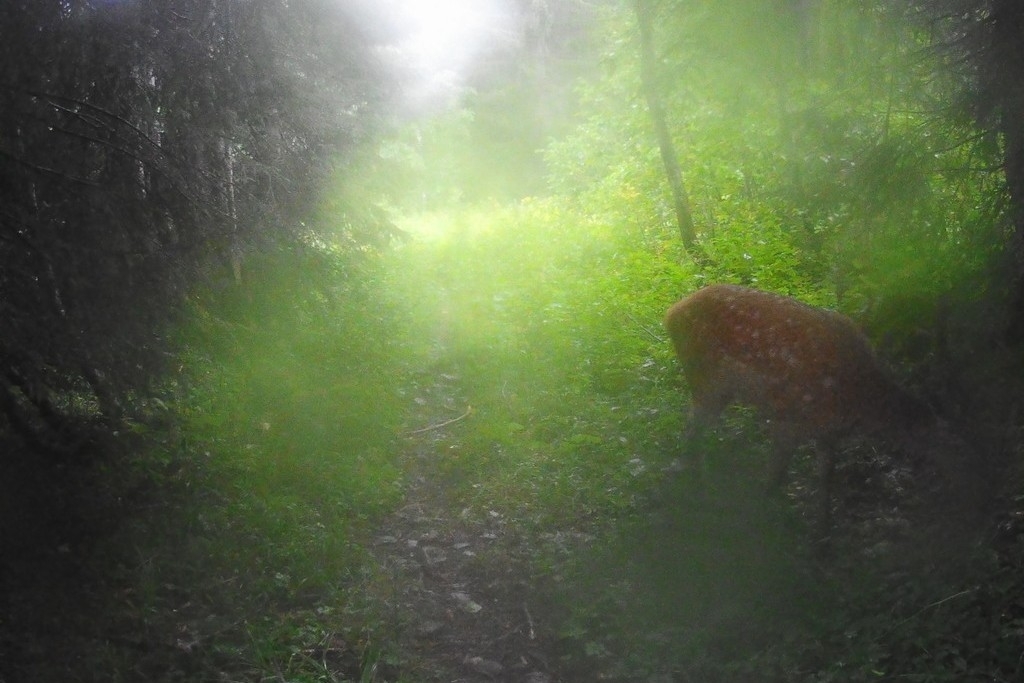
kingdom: Animalia
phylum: Chordata
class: Mammalia
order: Artiodactyla
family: Cervidae
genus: Dama
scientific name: Dama dama
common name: Fallow deer
